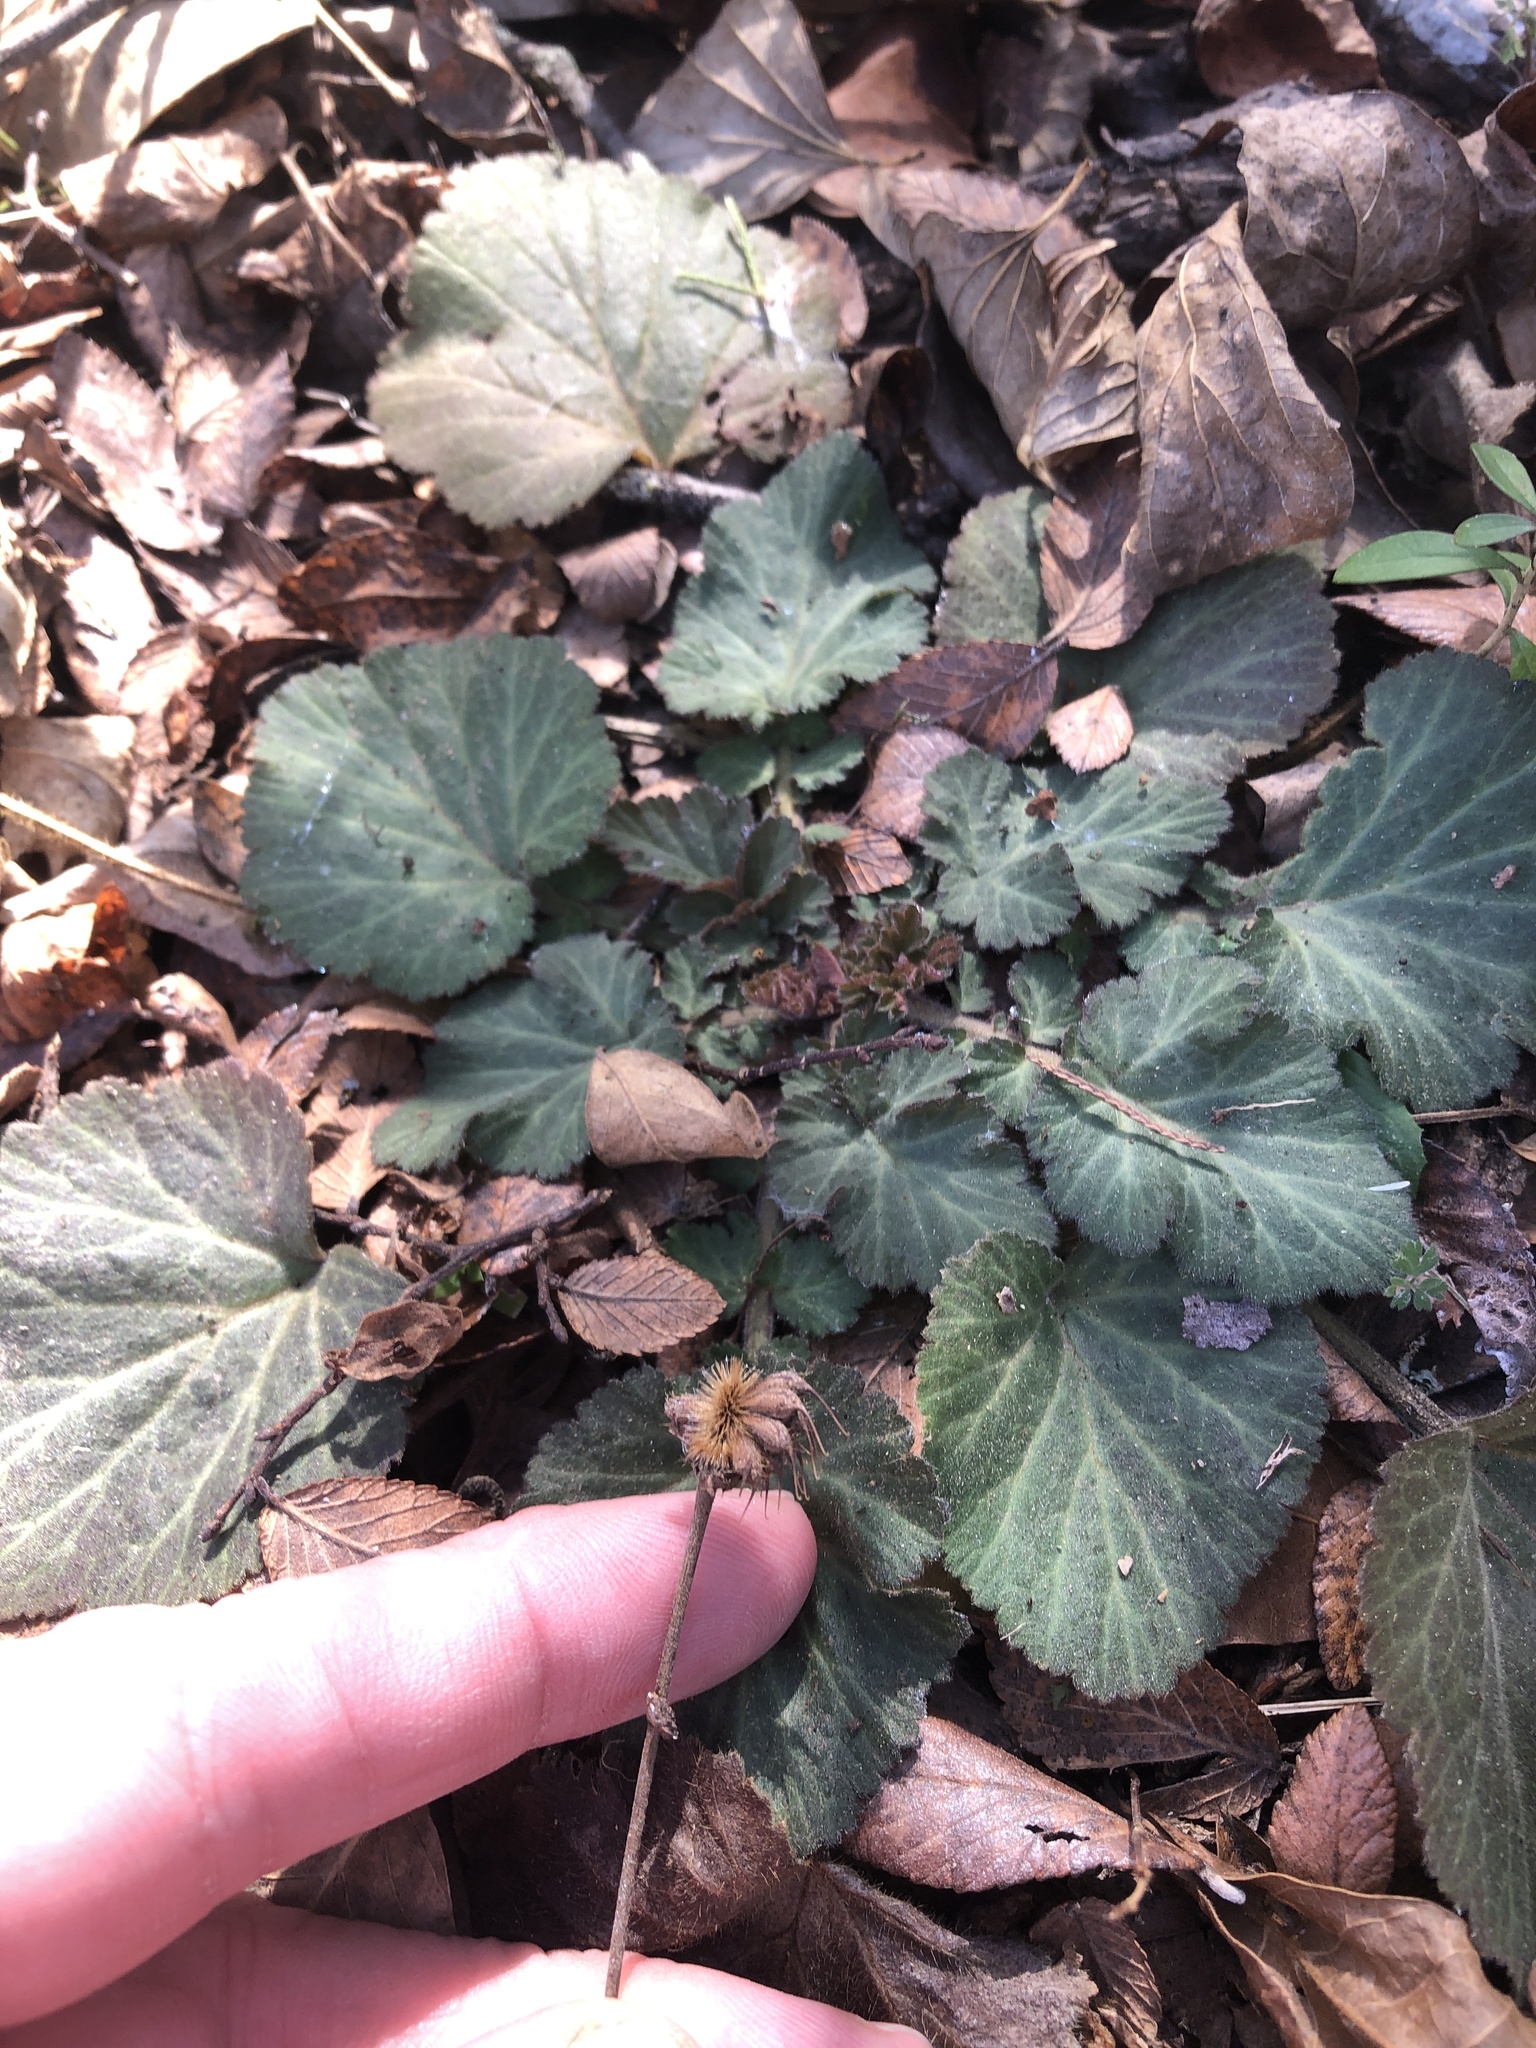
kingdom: Plantae
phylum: Tracheophyta
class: Magnoliopsida
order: Rosales
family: Rosaceae
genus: Geum
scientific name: Geum canadense
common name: White avens
